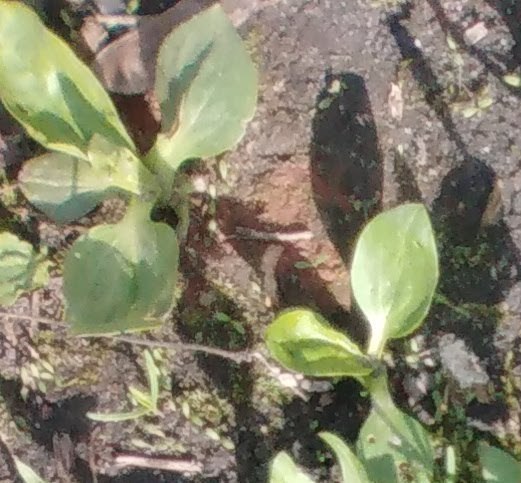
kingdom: Plantae
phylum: Tracheophyta
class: Magnoliopsida
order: Lamiales
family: Plantaginaceae
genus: Plantago
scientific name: Plantago major
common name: Common plantain
